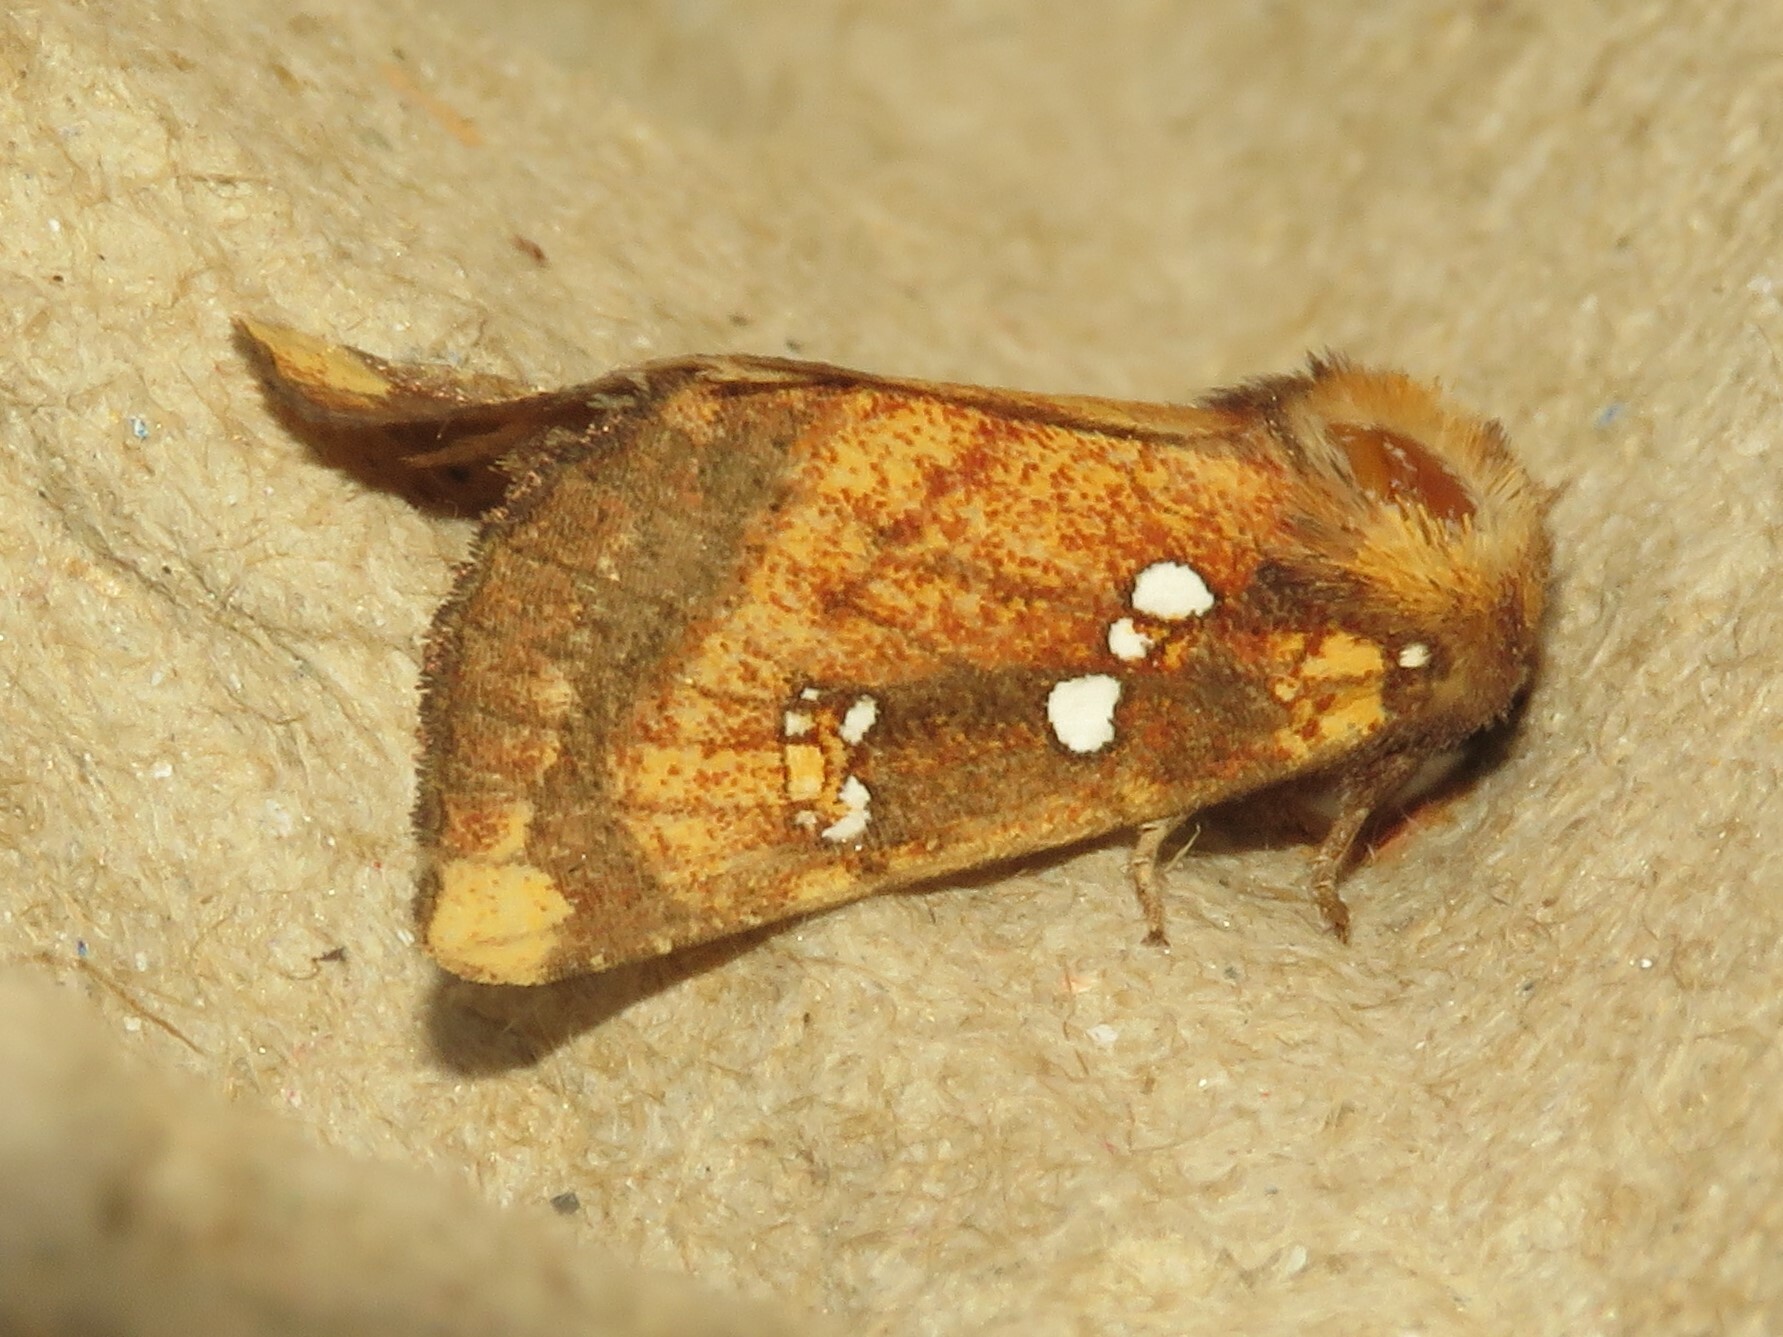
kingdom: Animalia
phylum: Arthropoda
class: Insecta
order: Lepidoptera
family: Noctuidae
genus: Papaipema
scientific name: Papaipema arctivorens
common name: Northern burdock borer moth
